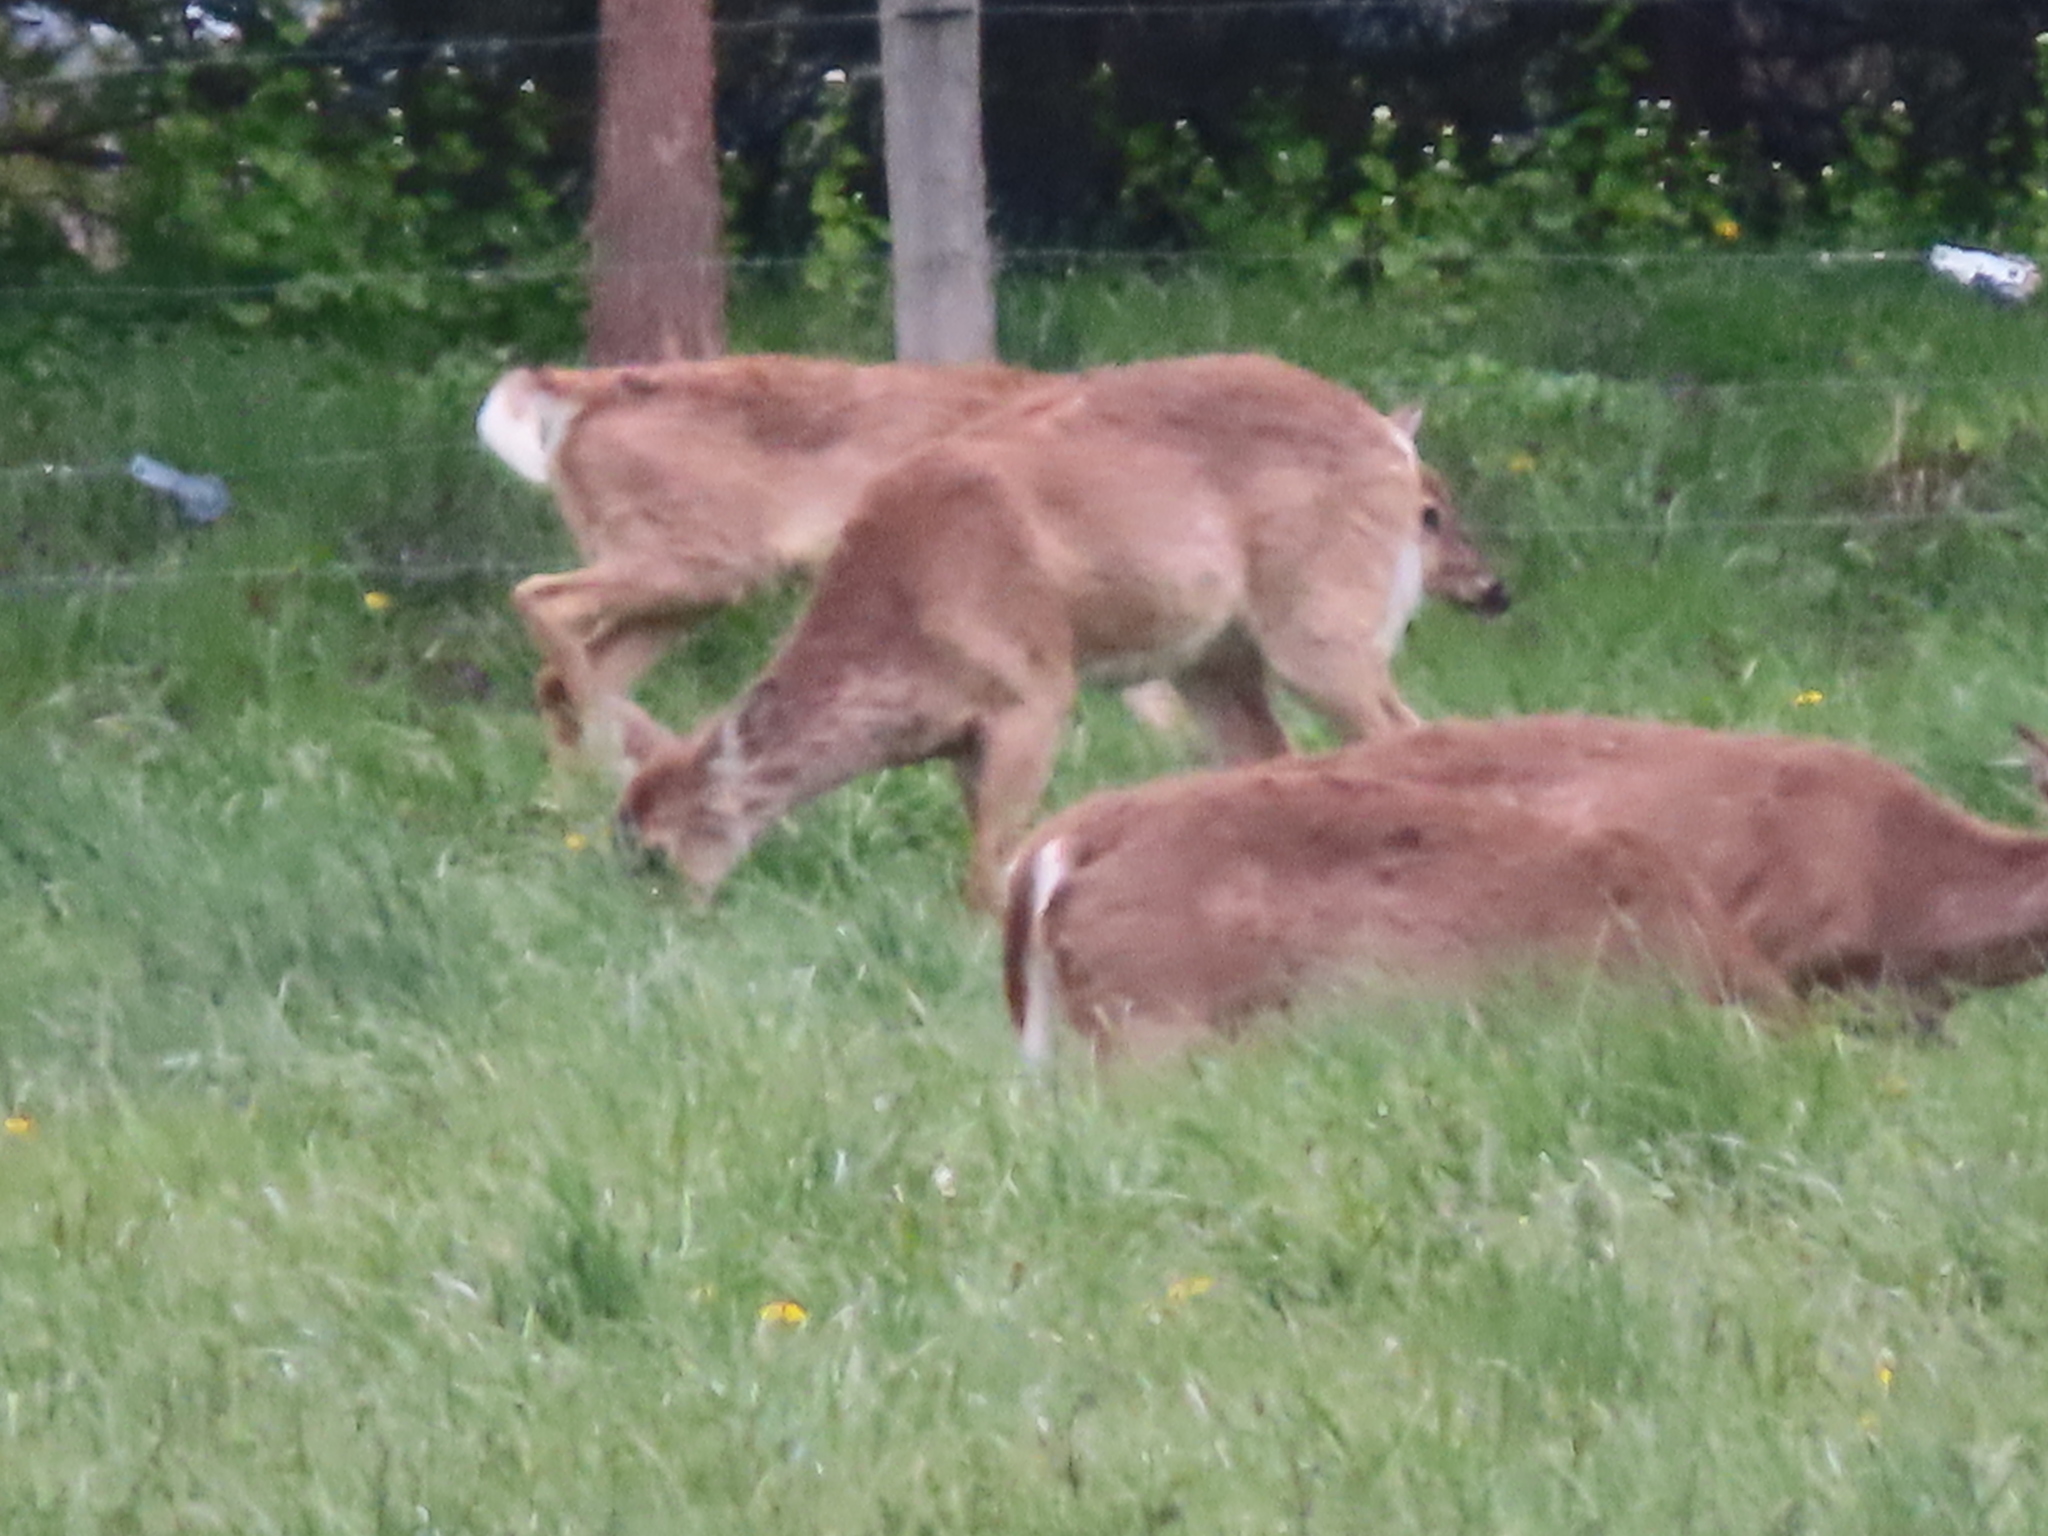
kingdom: Animalia
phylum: Chordata
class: Mammalia
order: Artiodactyla
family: Cervidae
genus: Odocoileus
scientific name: Odocoileus virginianus
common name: White-tailed deer
